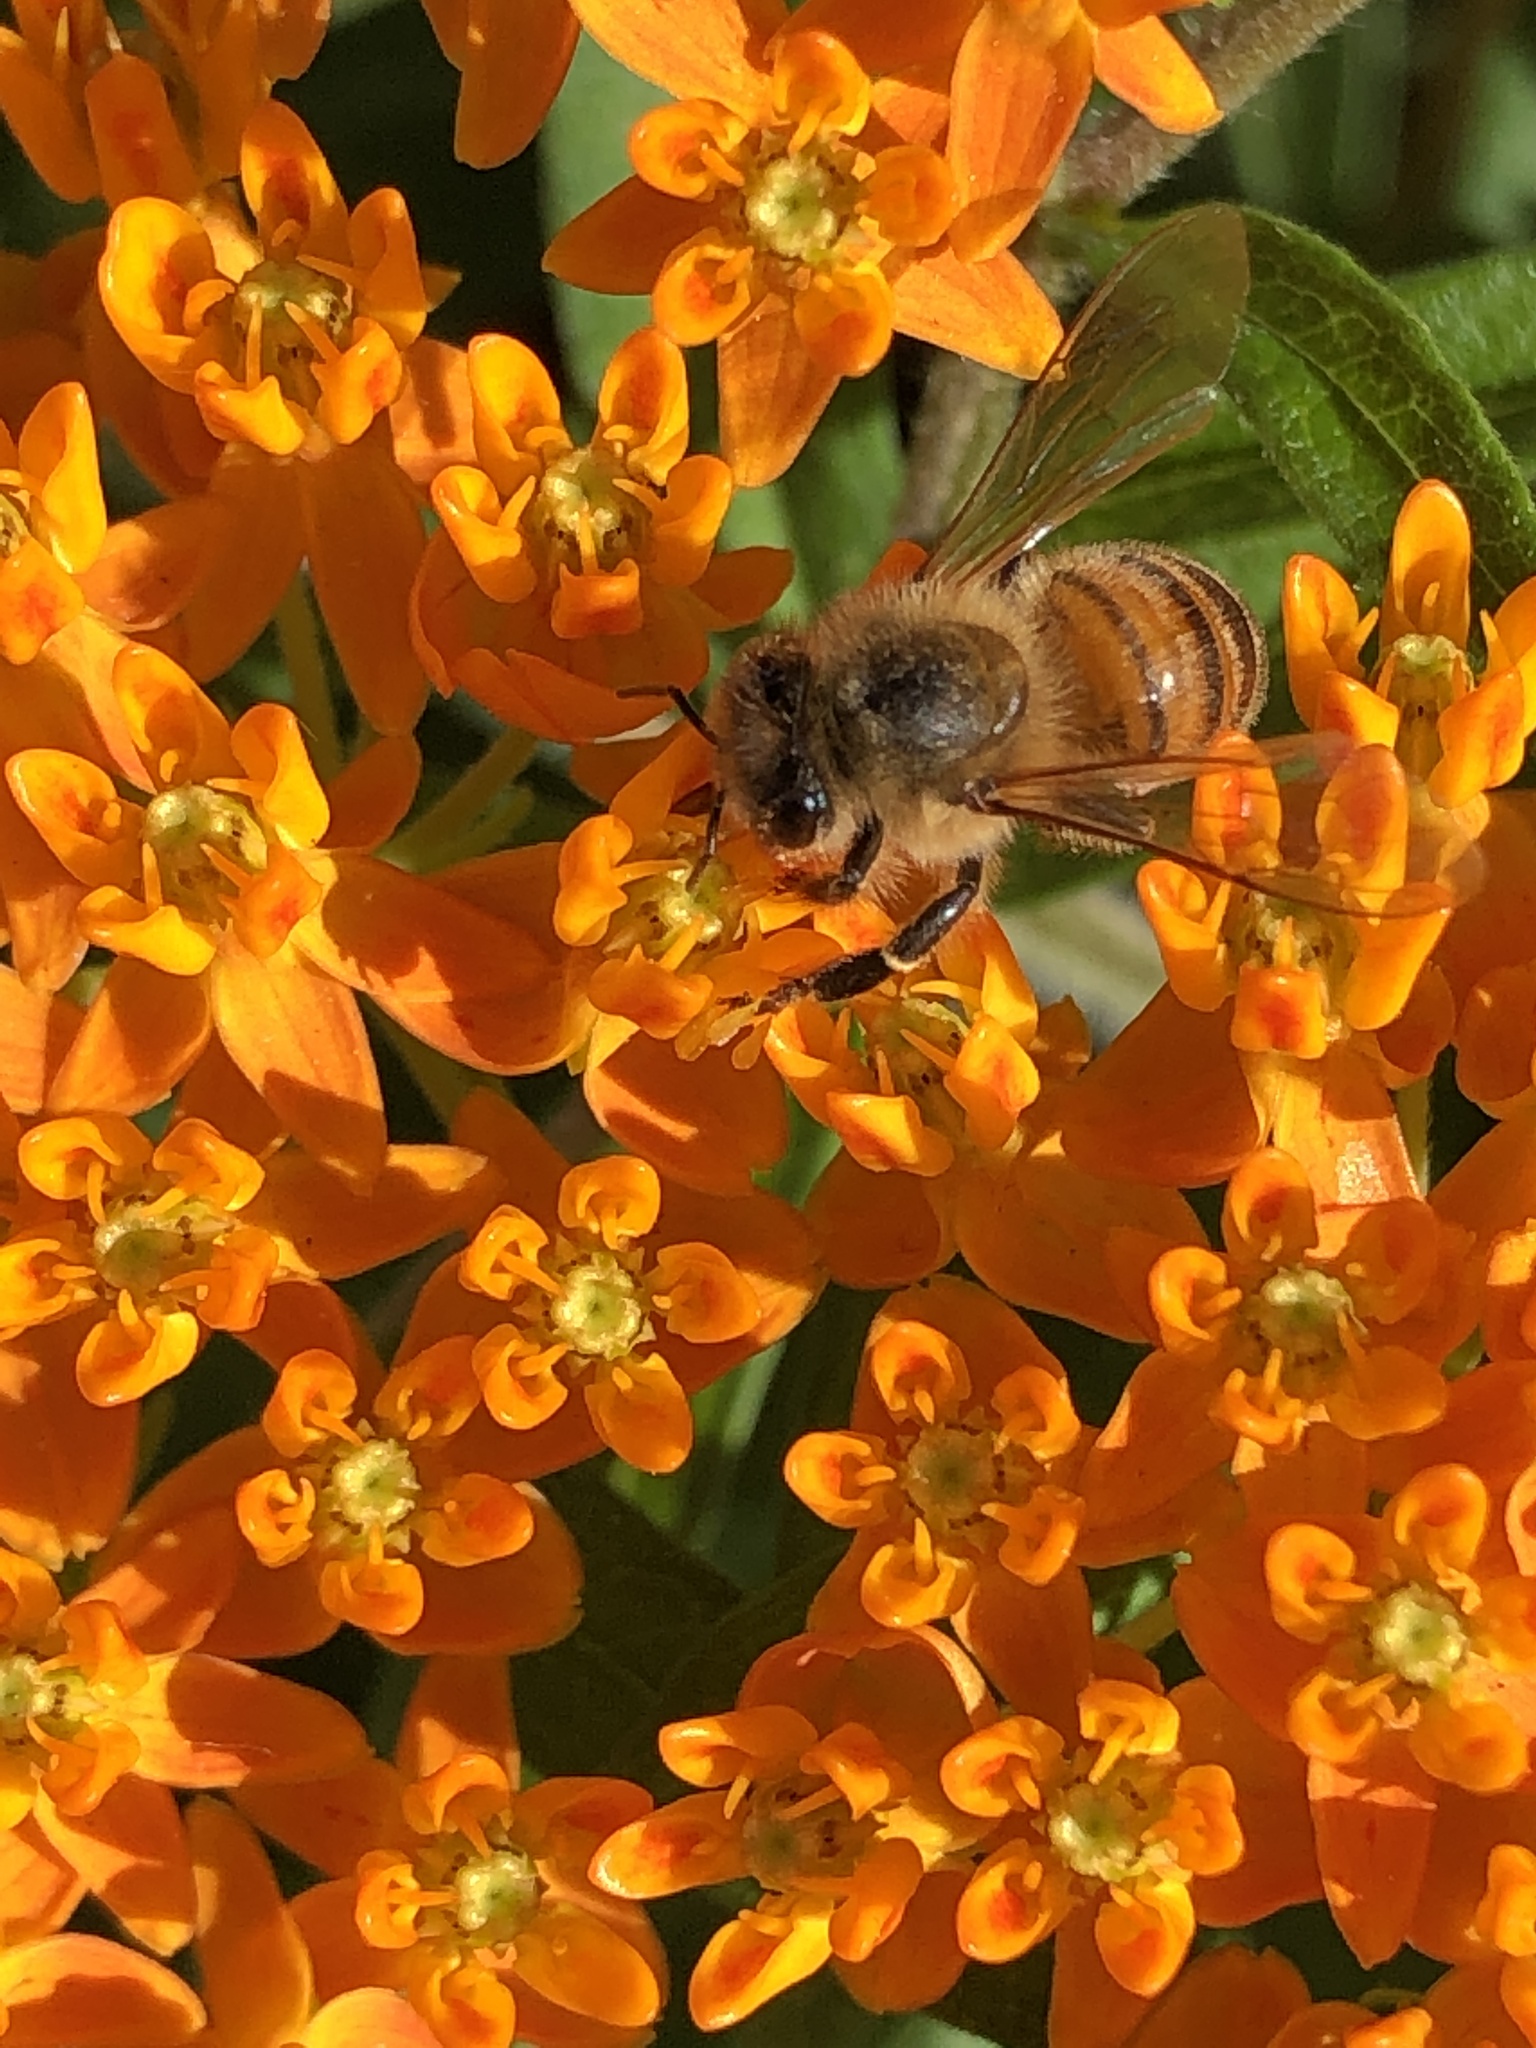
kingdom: Animalia
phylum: Arthropoda
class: Insecta
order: Hymenoptera
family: Apidae
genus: Apis
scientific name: Apis mellifera
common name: Honey bee
